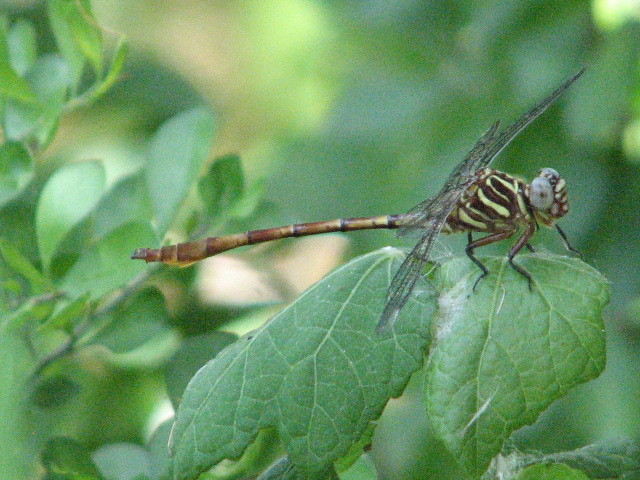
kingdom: Animalia
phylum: Arthropoda
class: Insecta
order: Odonata
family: Gomphidae
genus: Aphylla
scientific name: Aphylla angustifolia
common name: Broad-striped forceptail
